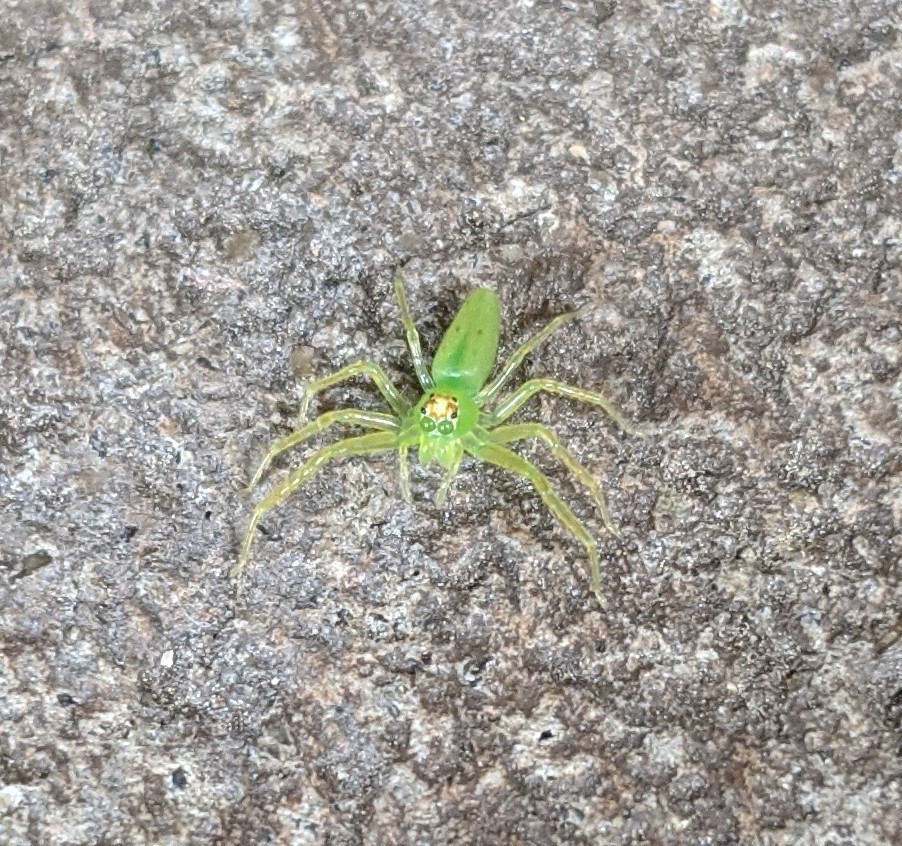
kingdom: Animalia
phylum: Arthropoda
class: Arachnida
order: Araneae
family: Salticidae
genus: Lyssomanes
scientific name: Lyssomanes viridis
